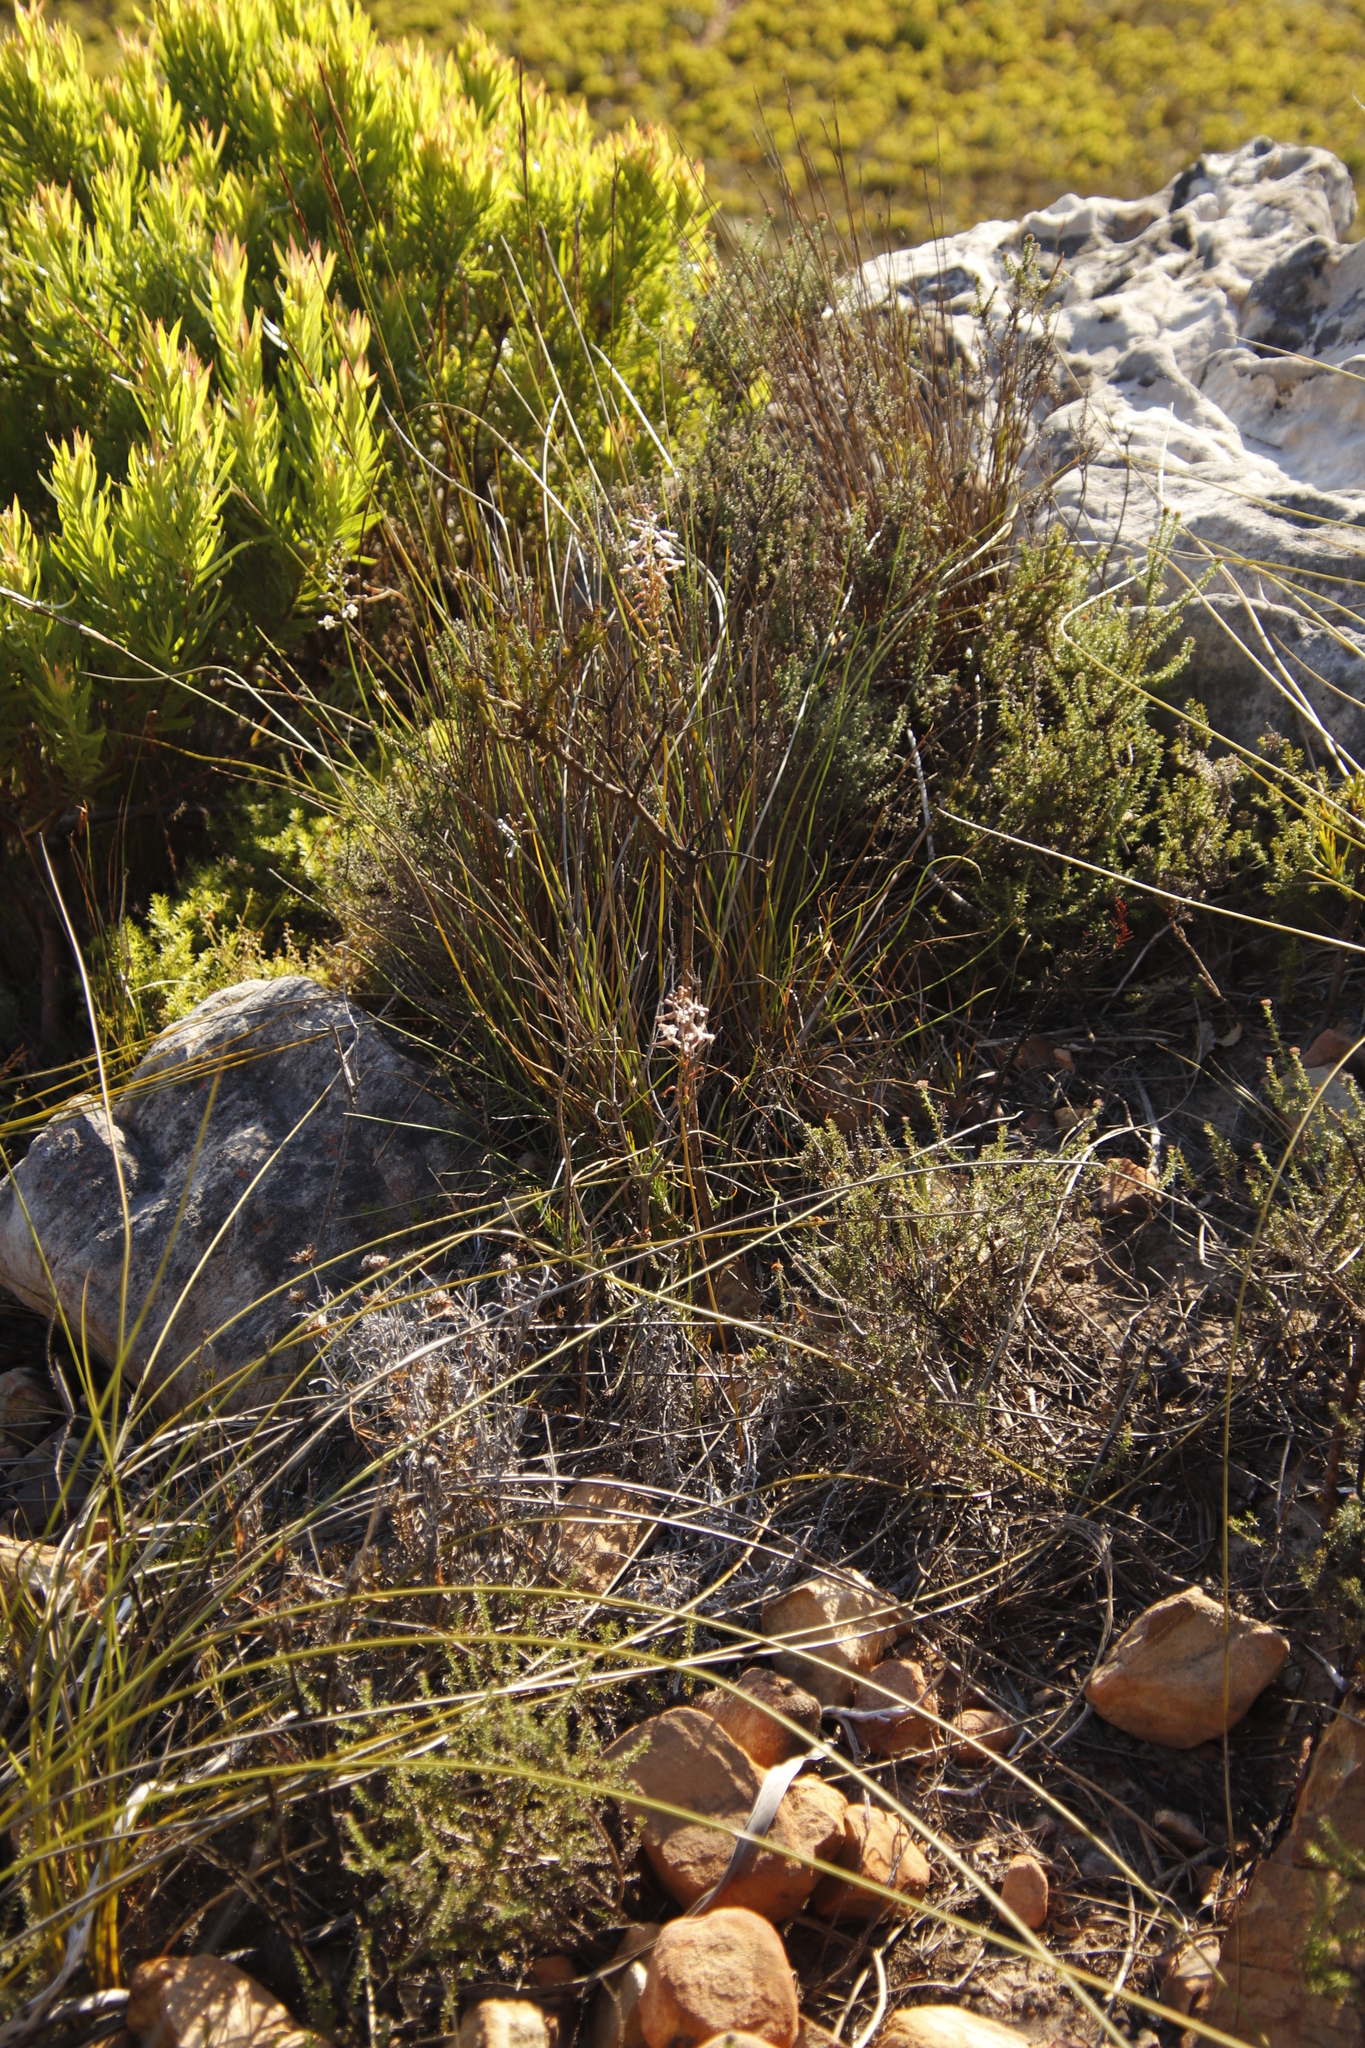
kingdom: Plantae
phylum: Tracheophyta
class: Liliopsida
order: Asparagales
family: Asparagaceae
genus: Drimia
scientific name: Drimia elata
